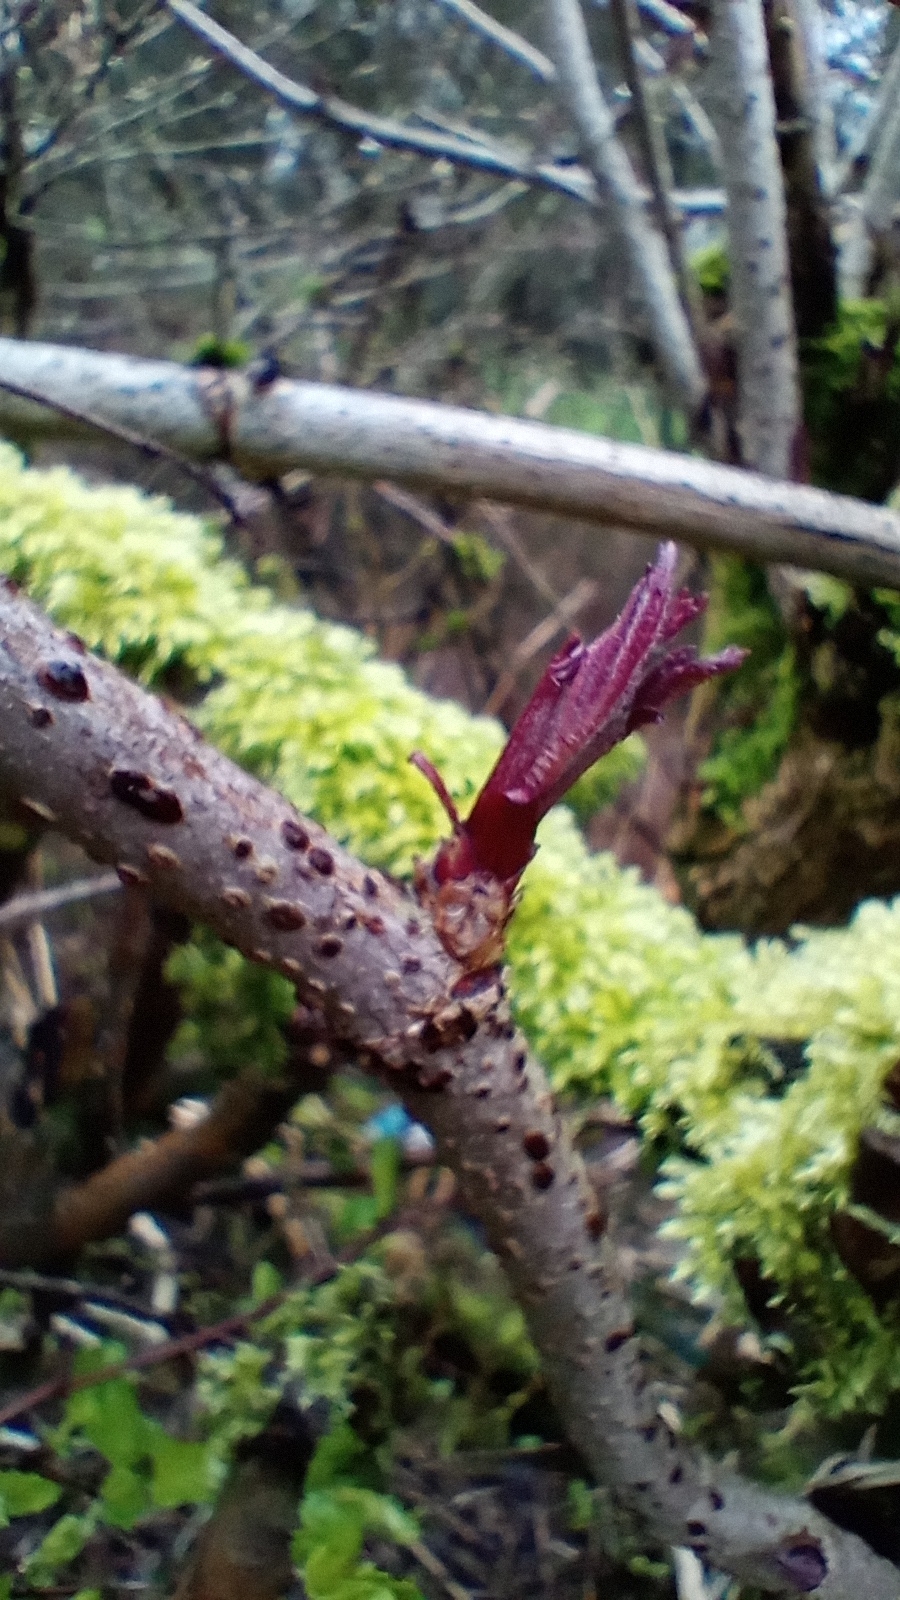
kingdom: Plantae
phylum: Tracheophyta
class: Magnoliopsida
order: Dipsacales
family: Viburnaceae
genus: Sambucus
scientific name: Sambucus nigra
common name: Elder
